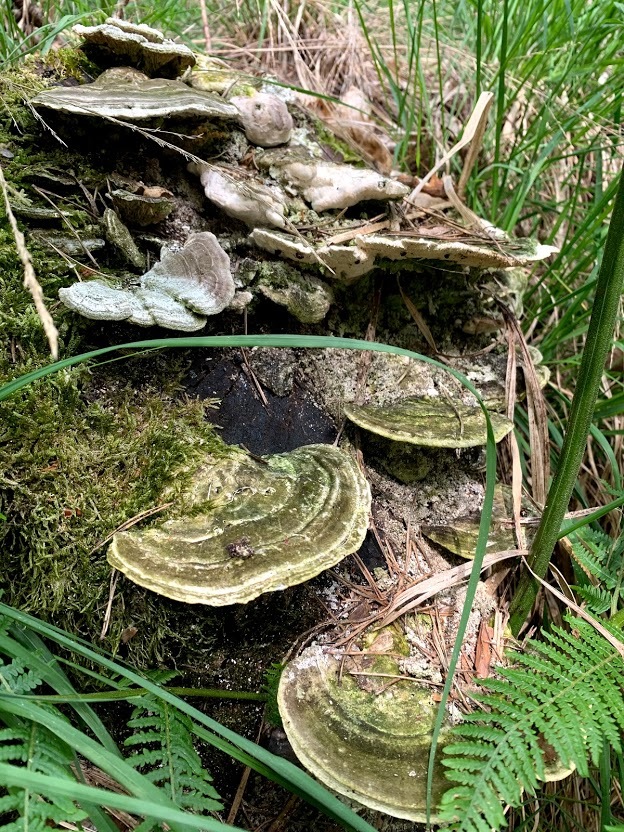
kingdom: Fungi
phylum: Basidiomycota
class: Agaricomycetes
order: Polyporales
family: Fomitopsidaceae
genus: Fomitopsis
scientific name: Fomitopsis
